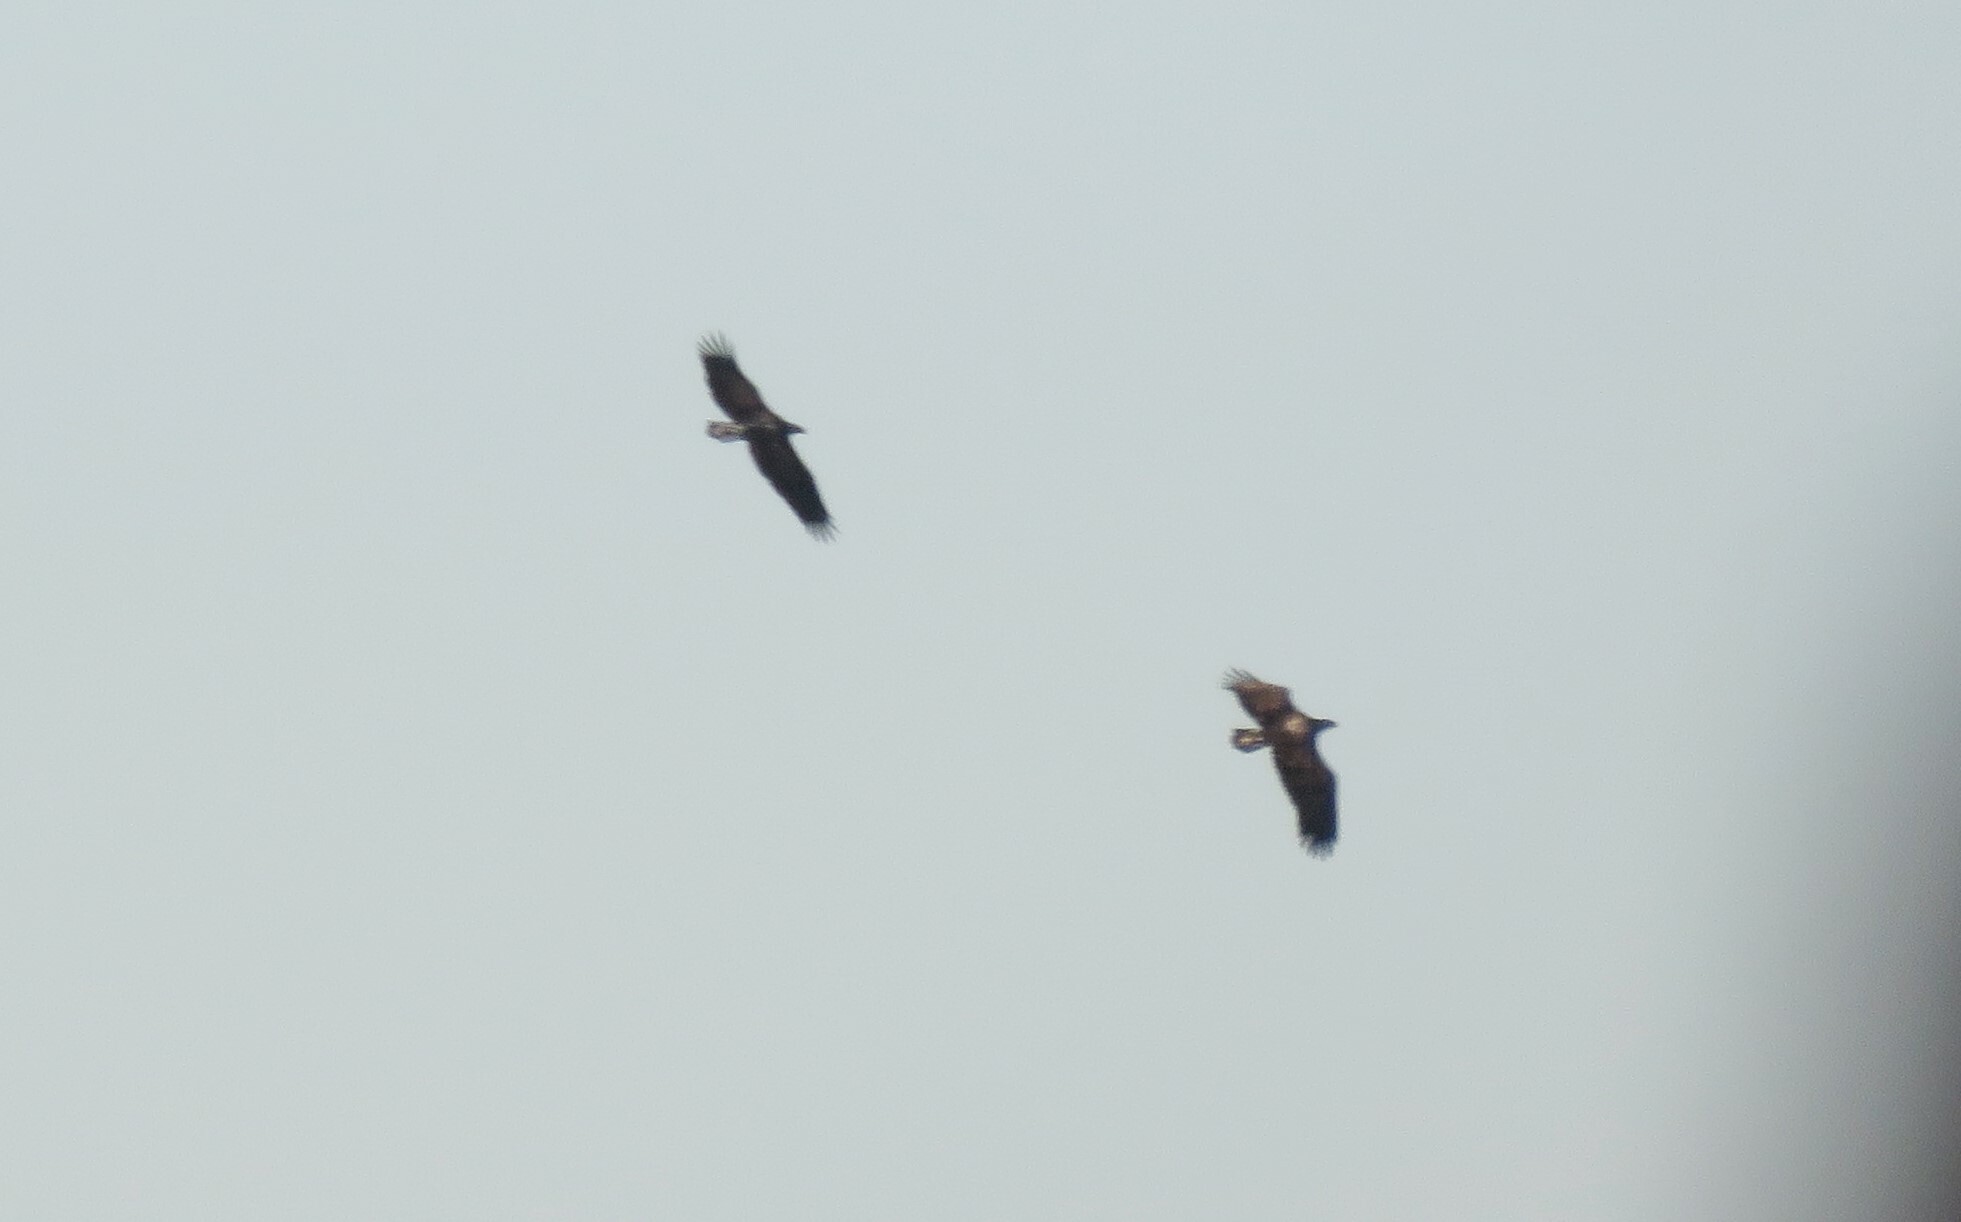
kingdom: Animalia
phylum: Chordata
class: Aves
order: Accipitriformes
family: Accipitridae
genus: Haliaeetus
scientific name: Haliaeetus leucocephalus
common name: Bald eagle
